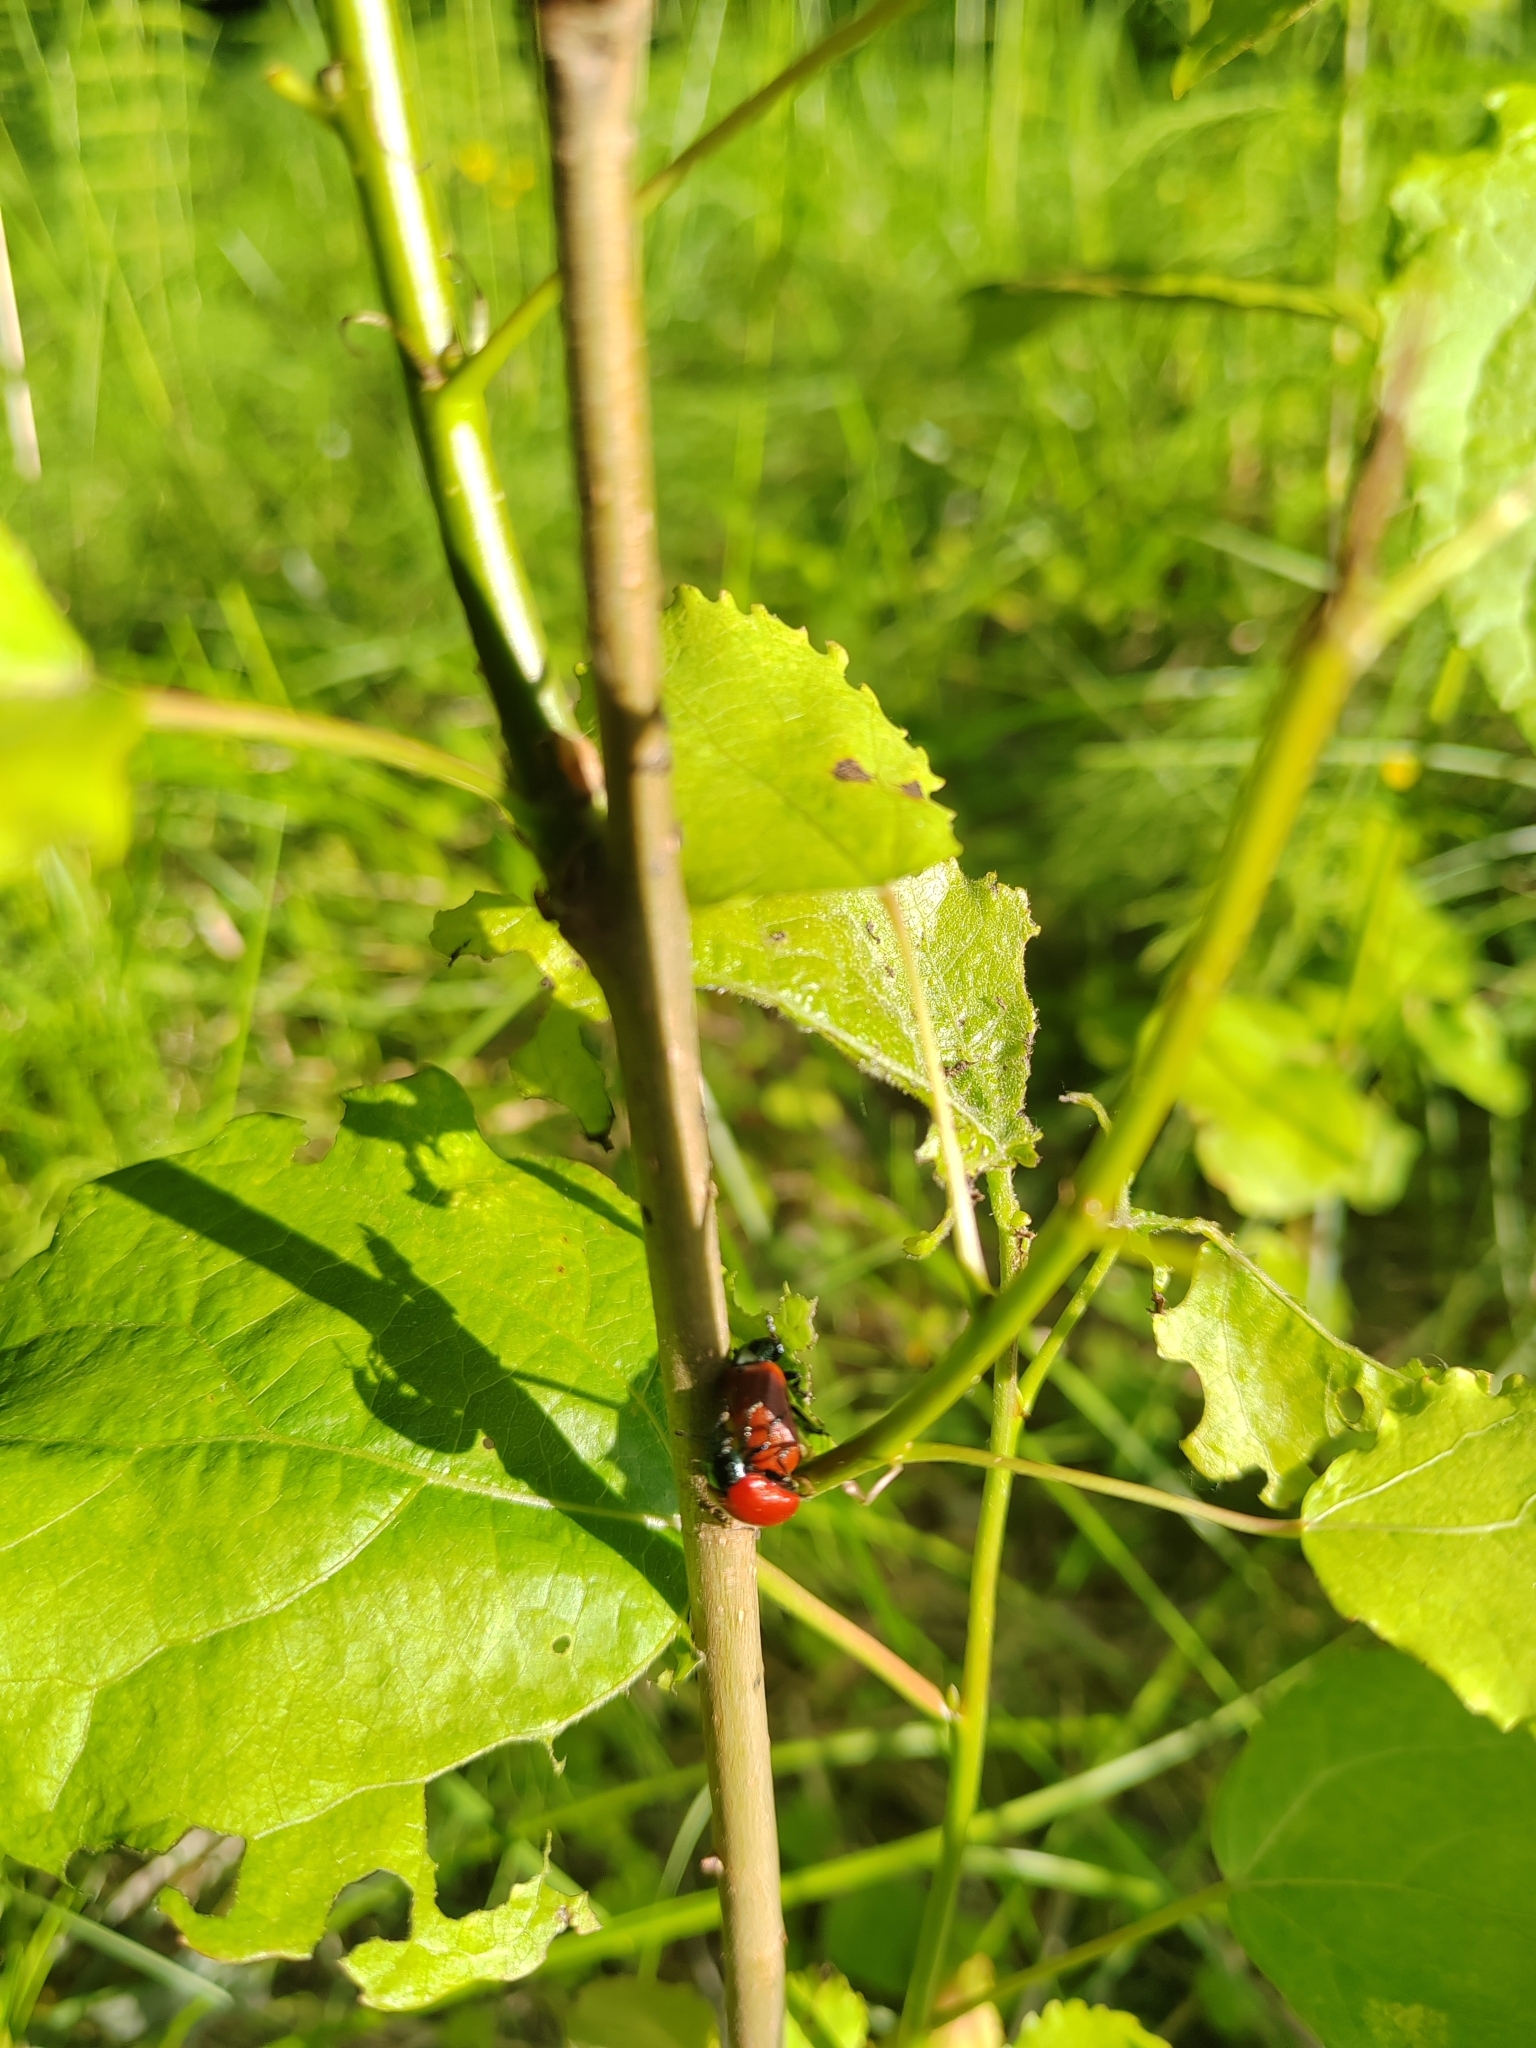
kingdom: Animalia
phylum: Arthropoda
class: Insecta
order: Coleoptera
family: Chrysomelidae
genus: Chrysomela
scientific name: Chrysomela populi
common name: Red poplar leaf beetle
